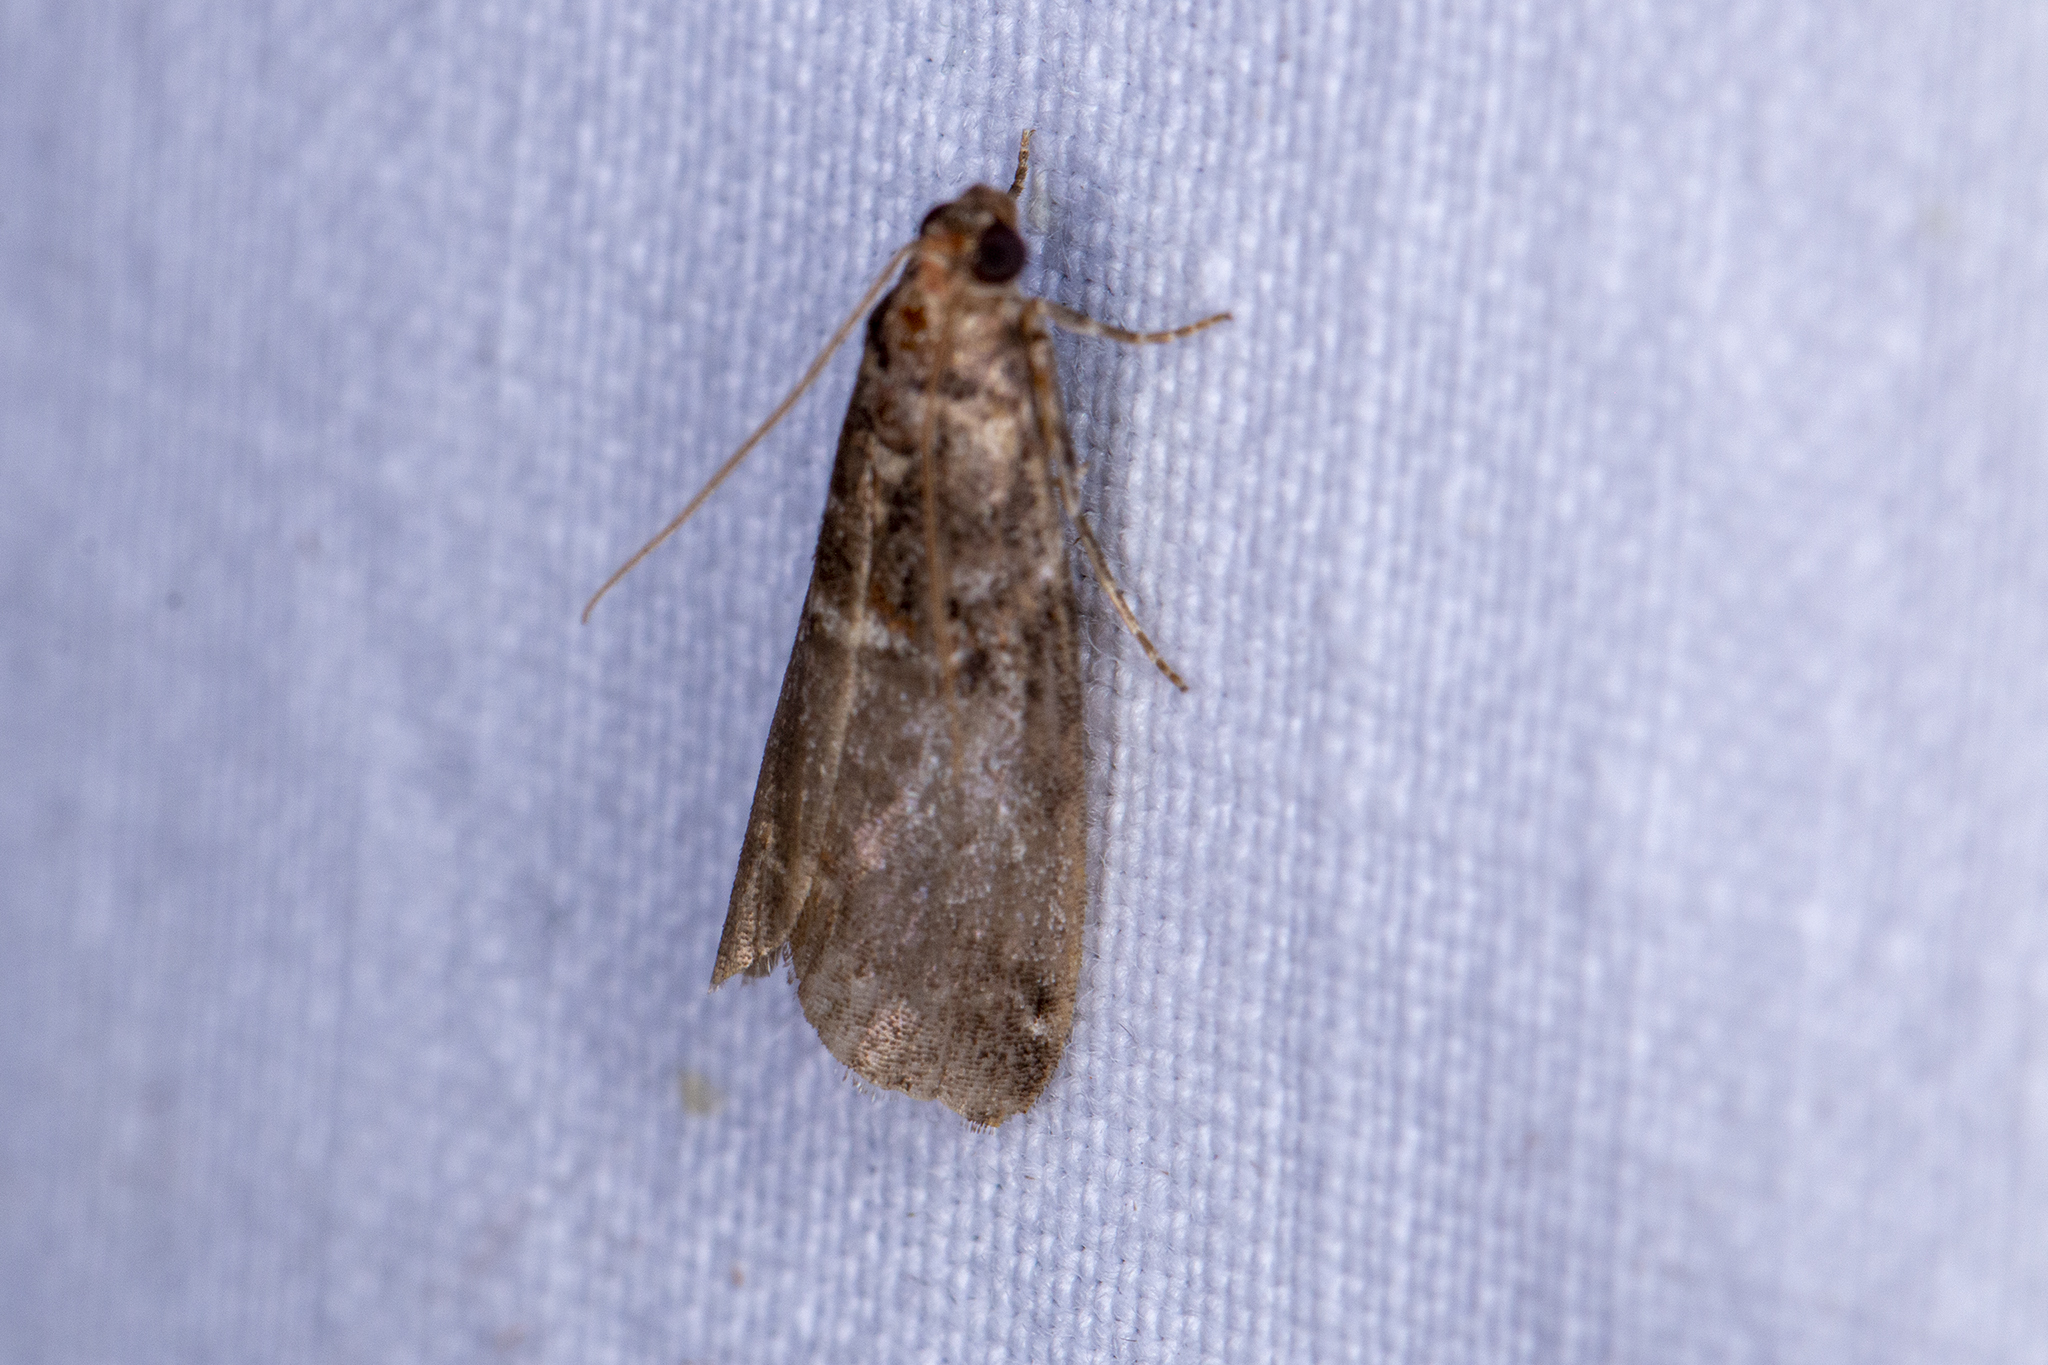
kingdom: Animalia
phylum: Arthropoda
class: Insecta
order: Lepidoptera
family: Pyralidae
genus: Acrobasis
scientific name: Acrobasis advenella
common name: Grey knot-horn
